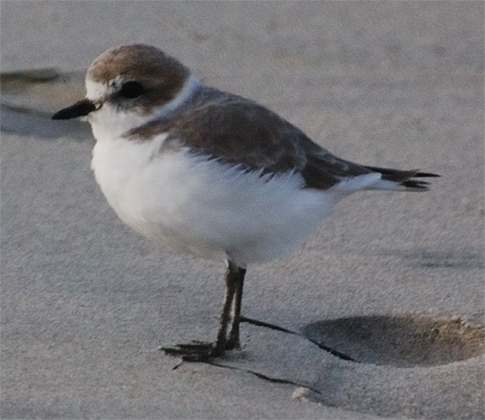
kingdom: Animalia
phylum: Chordata
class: Aves
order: Charadriiformes
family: Charadriidae
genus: Anarhynchus
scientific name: Anarhynchus
